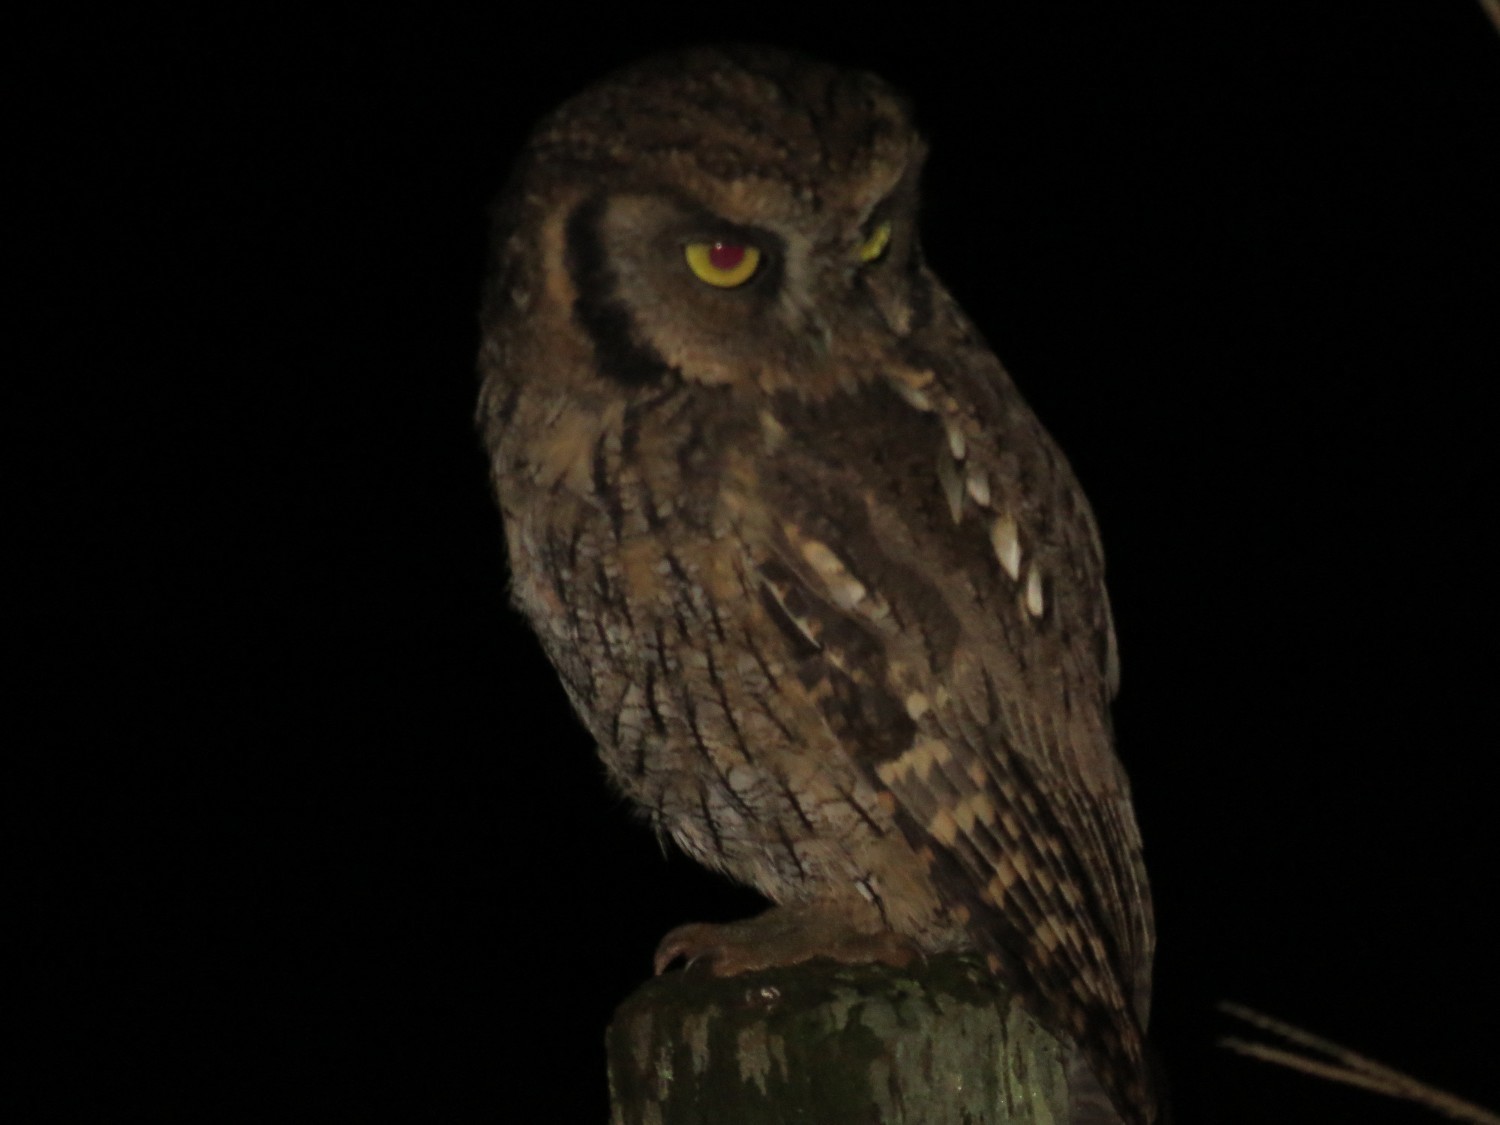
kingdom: Animalia
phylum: Chordata
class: Aves
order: Strigiformes
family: Strigidae
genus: Megascops
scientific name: Megascops choliba
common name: Tropical screech-owl
